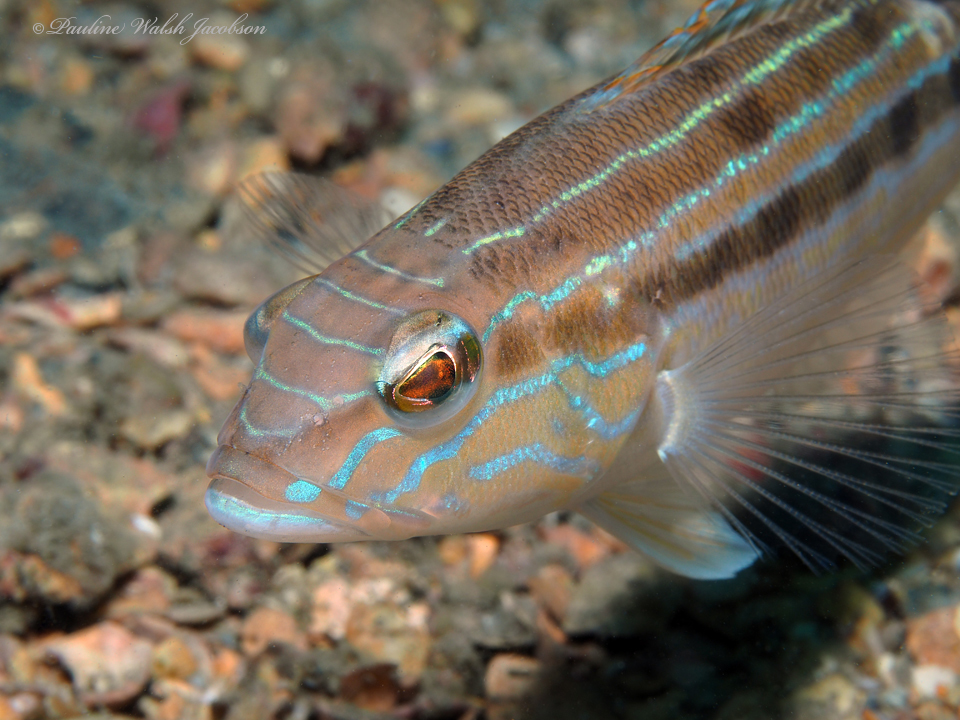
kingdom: Animalia
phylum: Chordata
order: Perciformes
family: Serranidae
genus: Diplectrum
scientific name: Diplectrum formosum
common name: Sand perch
